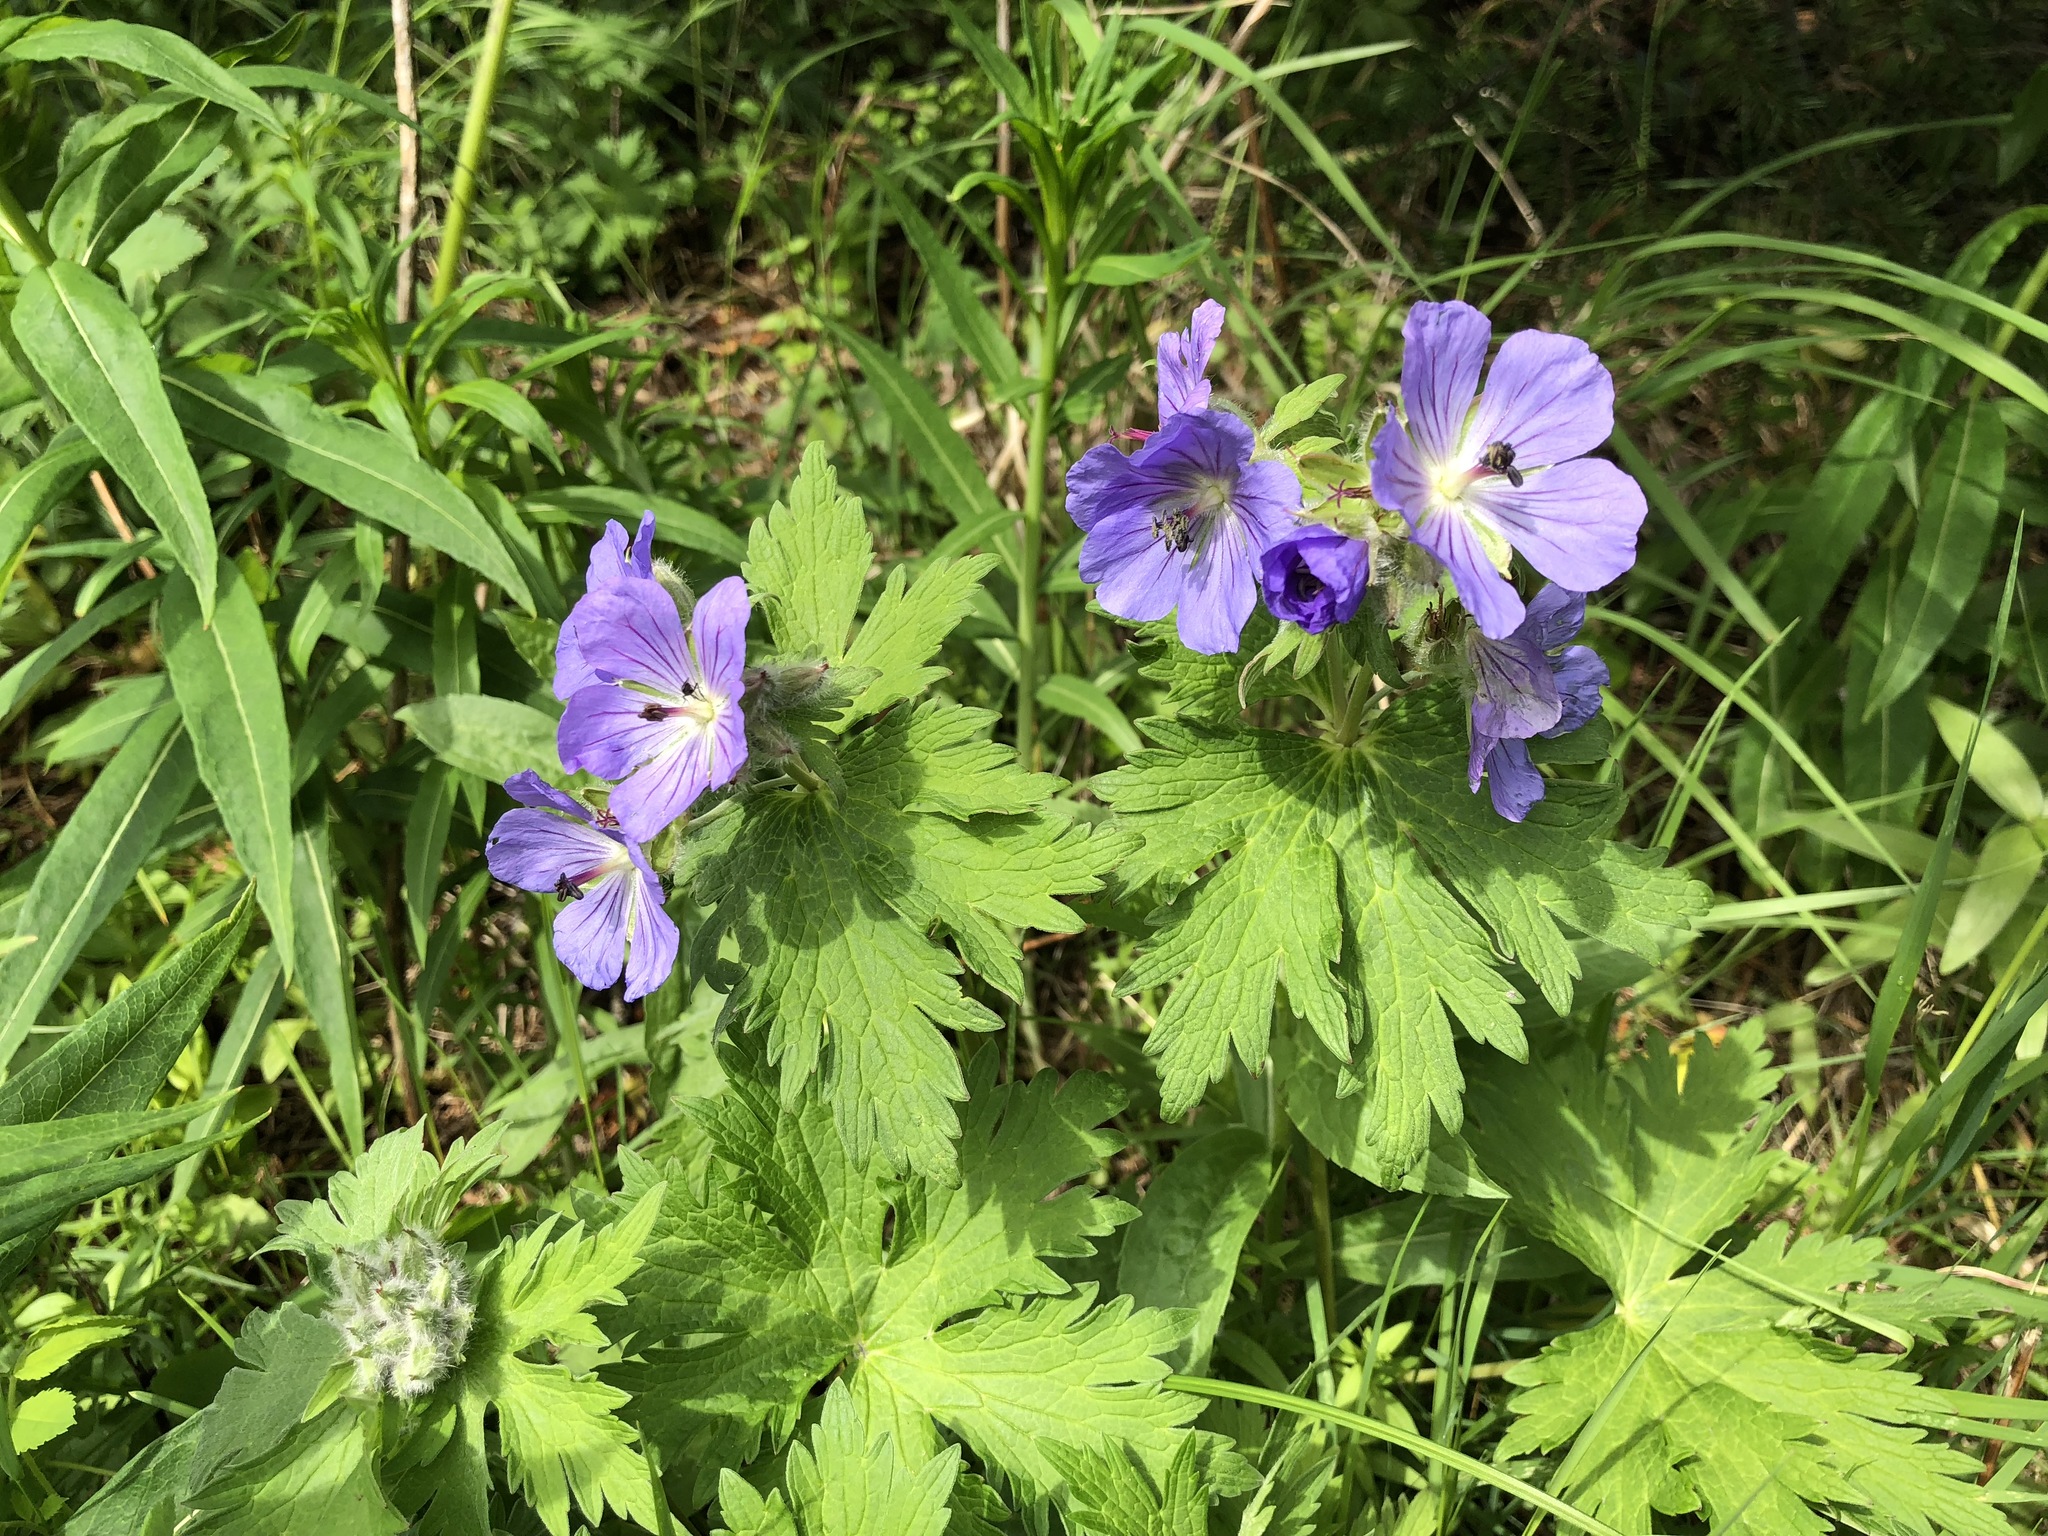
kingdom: Plantae
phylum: Tracheophyta
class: Magnoliopsida
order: Geraniales
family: Geraniaceae
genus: Geranium
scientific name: Geranium erianthum
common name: Northern crane's-bill
